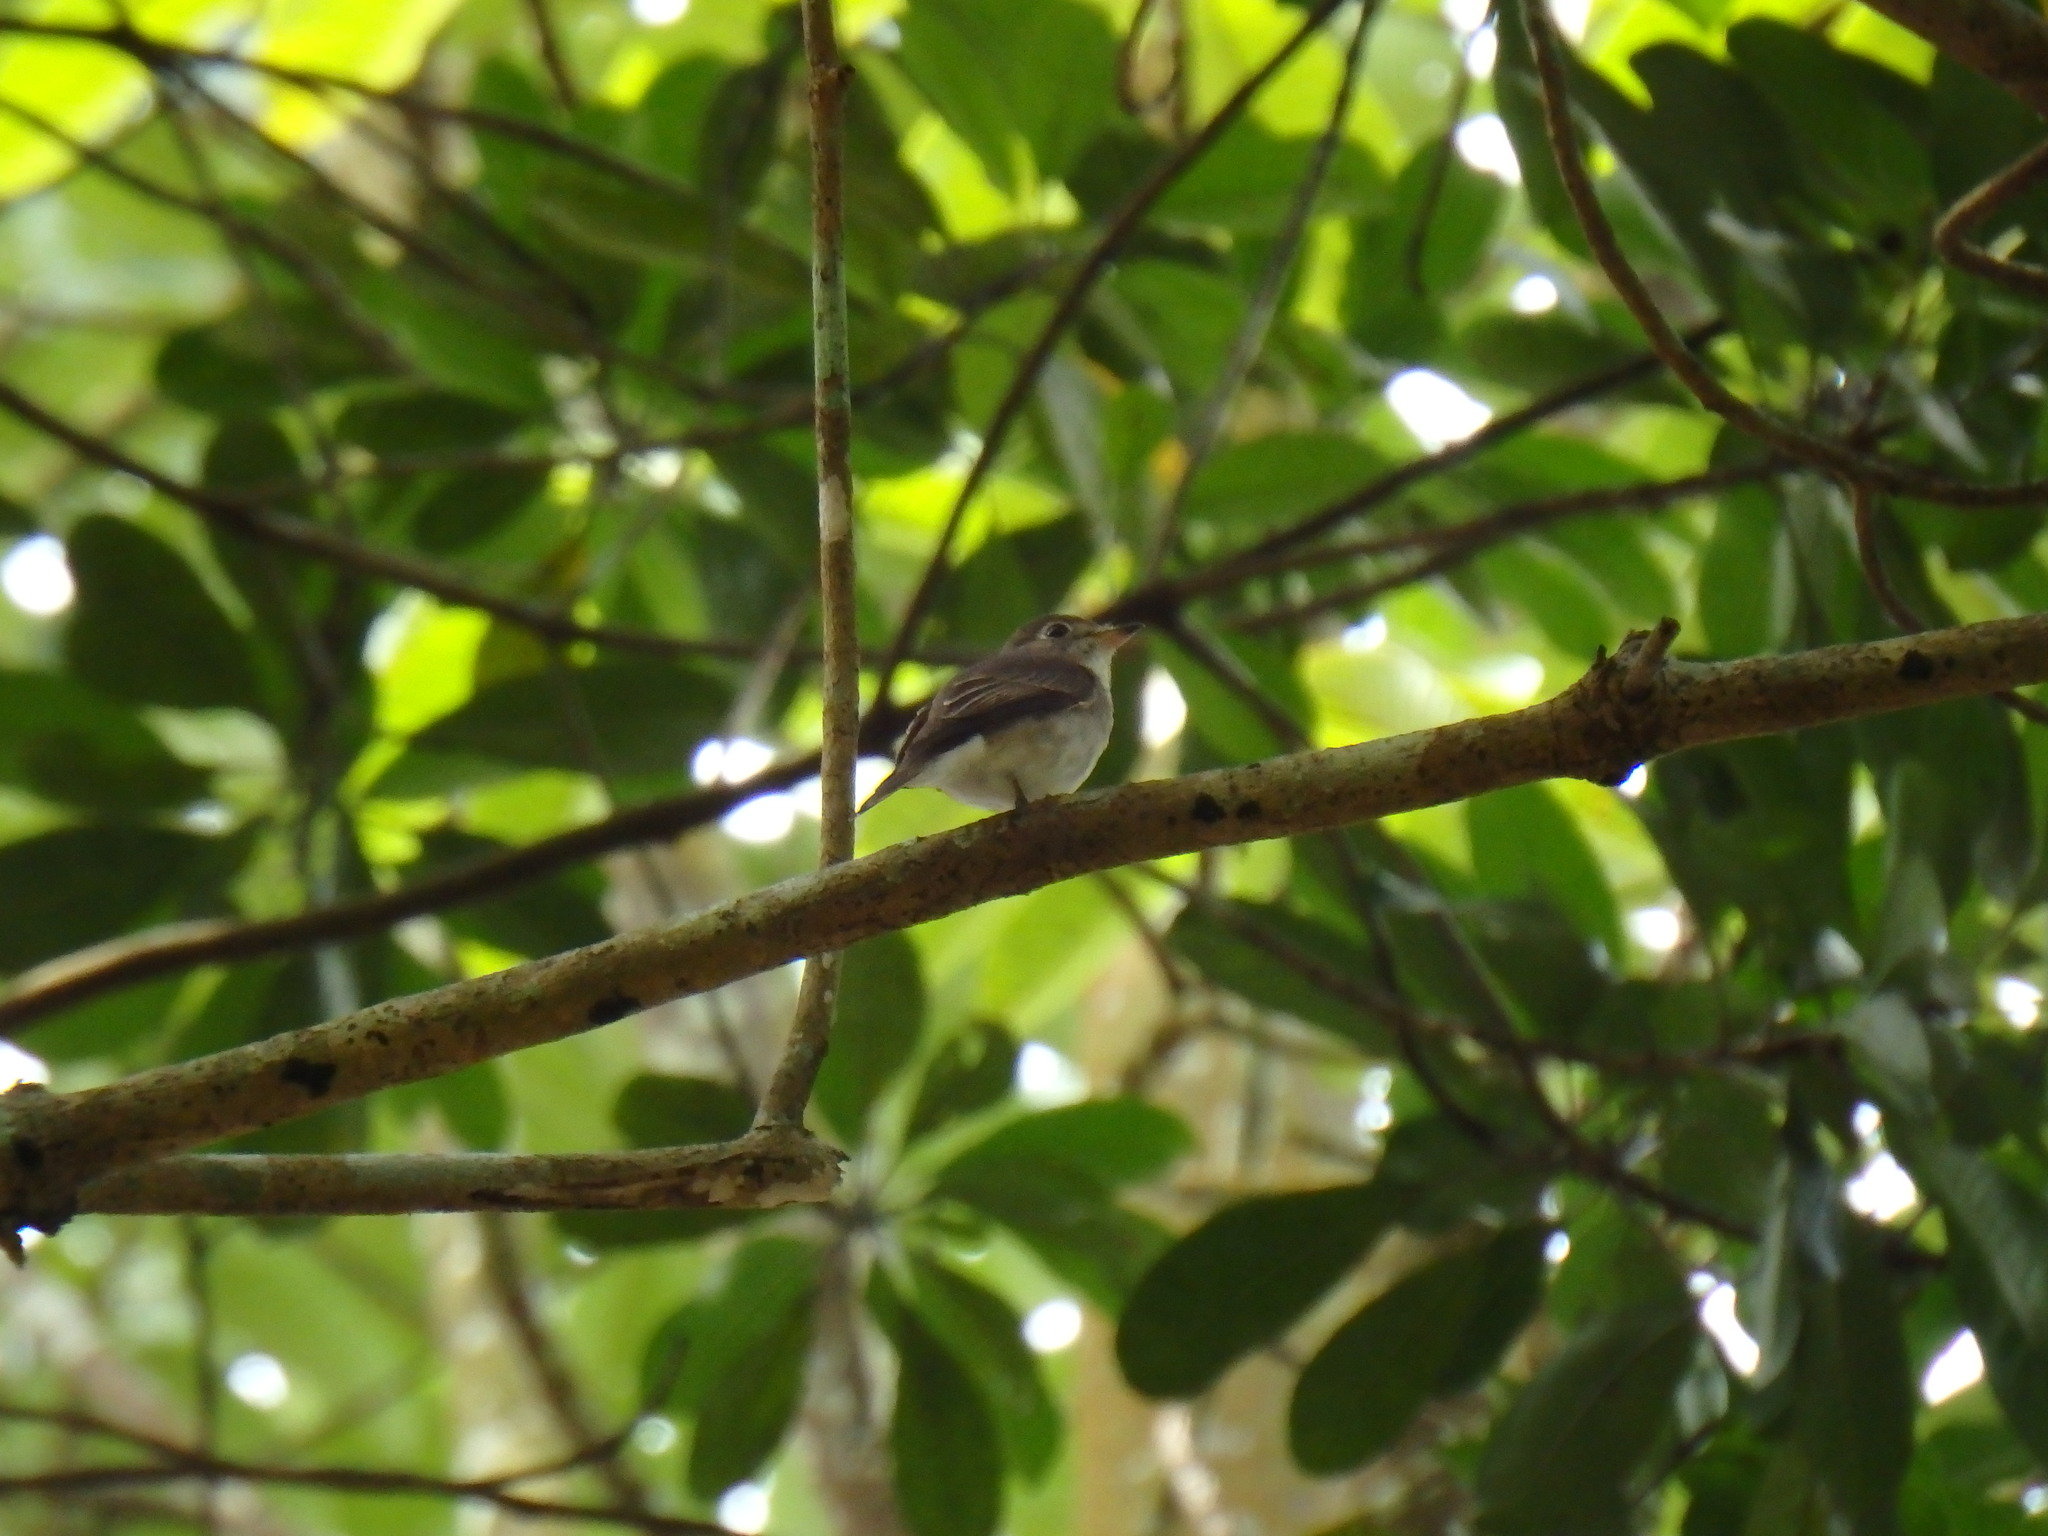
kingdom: Animalia
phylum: Chordata
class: Aves
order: Passeriformes
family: Muscicapidae
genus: Muscicapa
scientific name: Muscicapa latirostris
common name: Asian brown flycatcher
